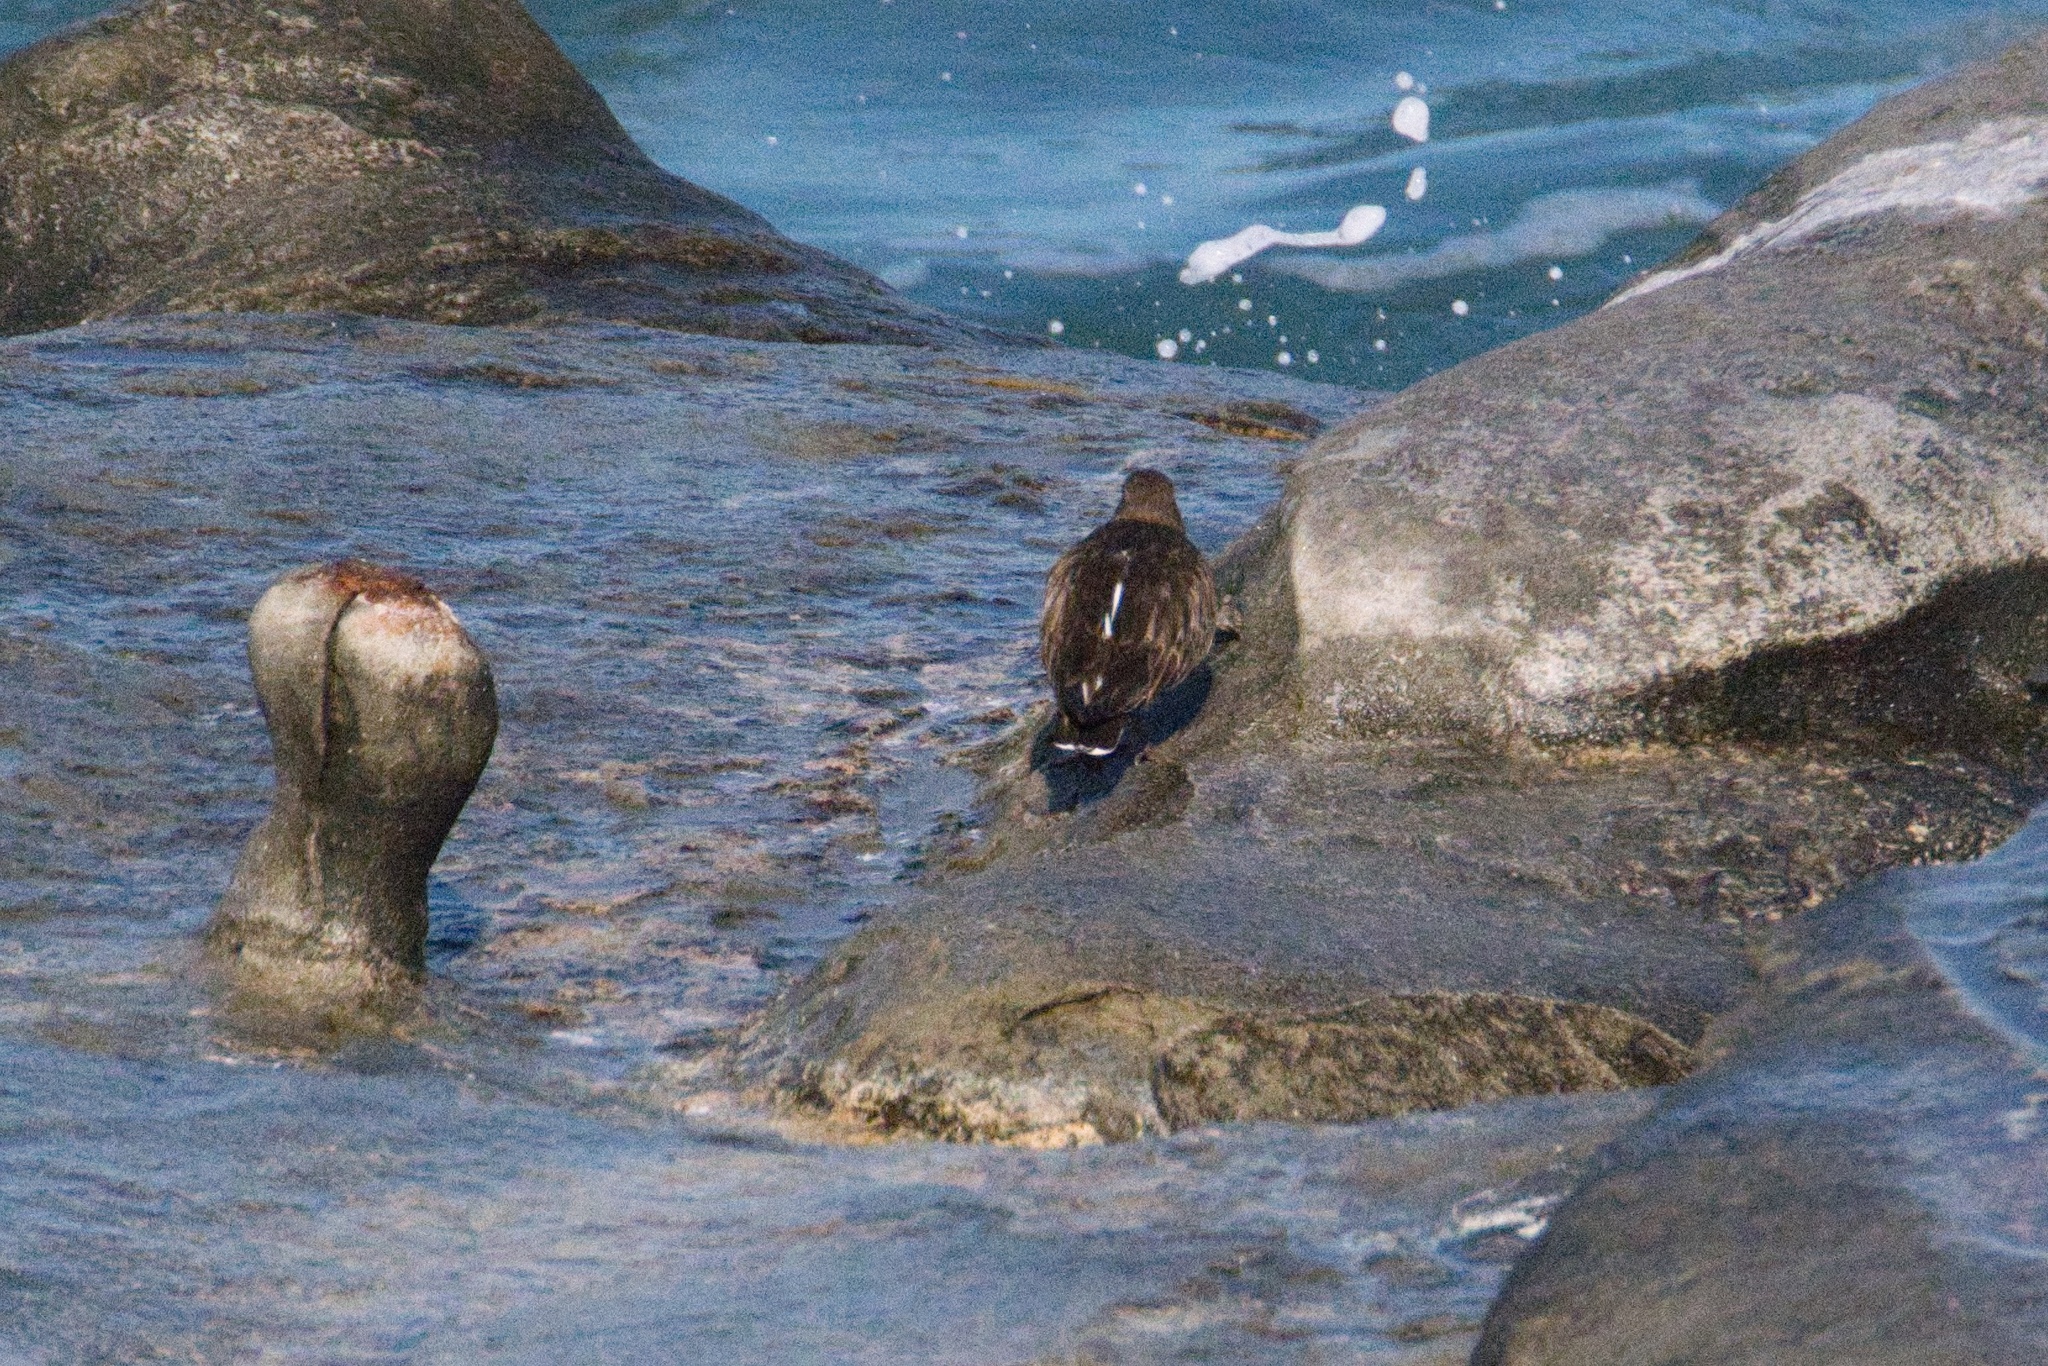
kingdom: Animalia
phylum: Chordata
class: Aves
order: Charadriiformes
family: Scolopacidae
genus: Arenaria
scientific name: Arenaria melanocephala
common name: Black turnstone
